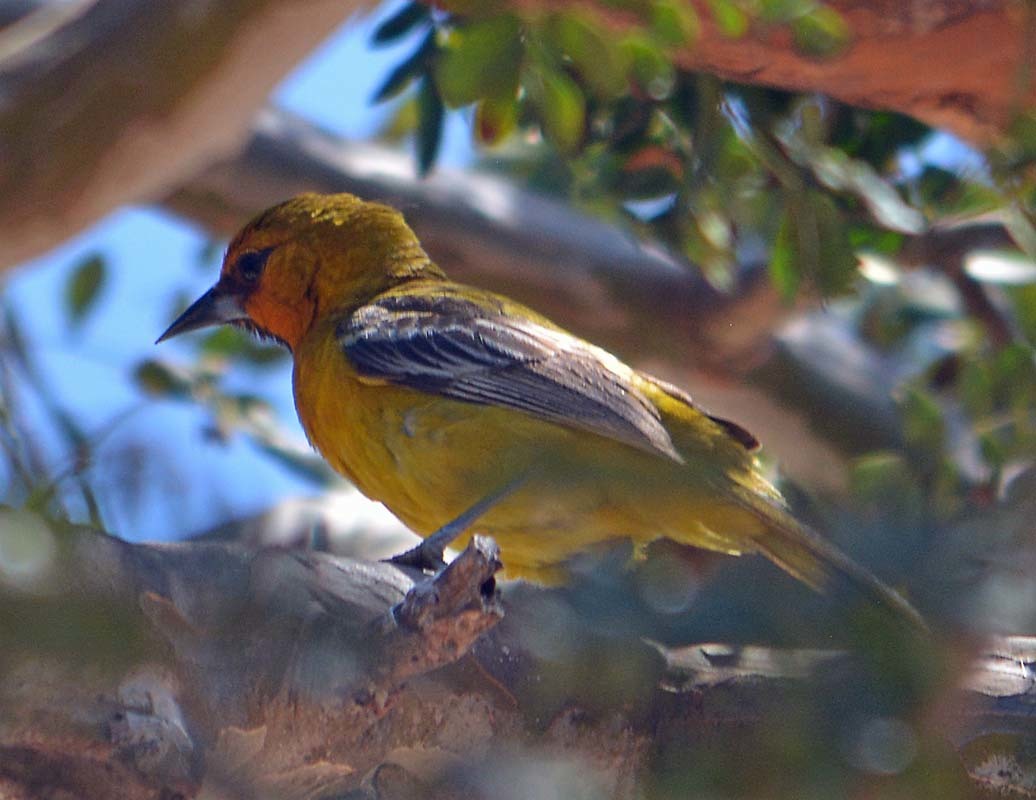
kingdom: Animalia
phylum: Chordata
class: Aves
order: Passeriformes
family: Icteridae
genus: Icterus
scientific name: Icterus pustulatus
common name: Streak-backed oriole
